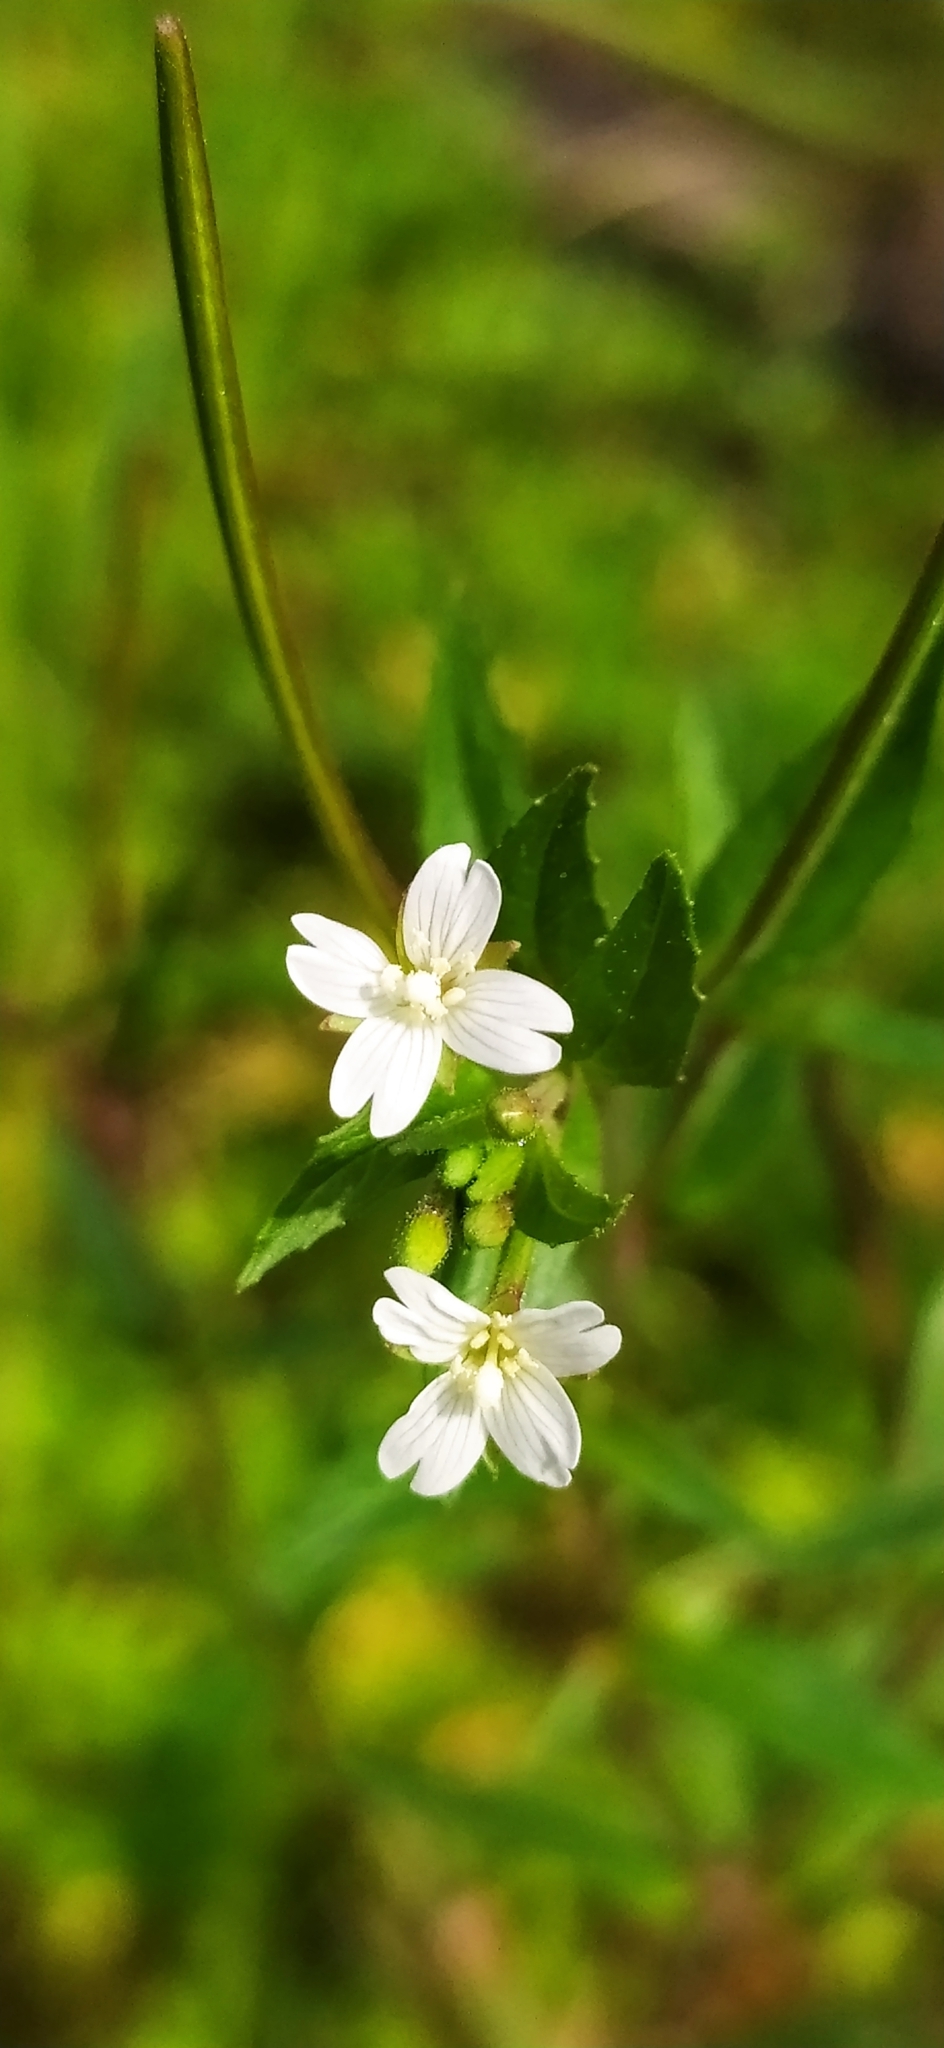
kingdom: Plantae
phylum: Tracheophyta
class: Magnoliopsida
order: Myrtales
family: Onagraceae
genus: Epilobium
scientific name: Epilobium pseudorubescens
